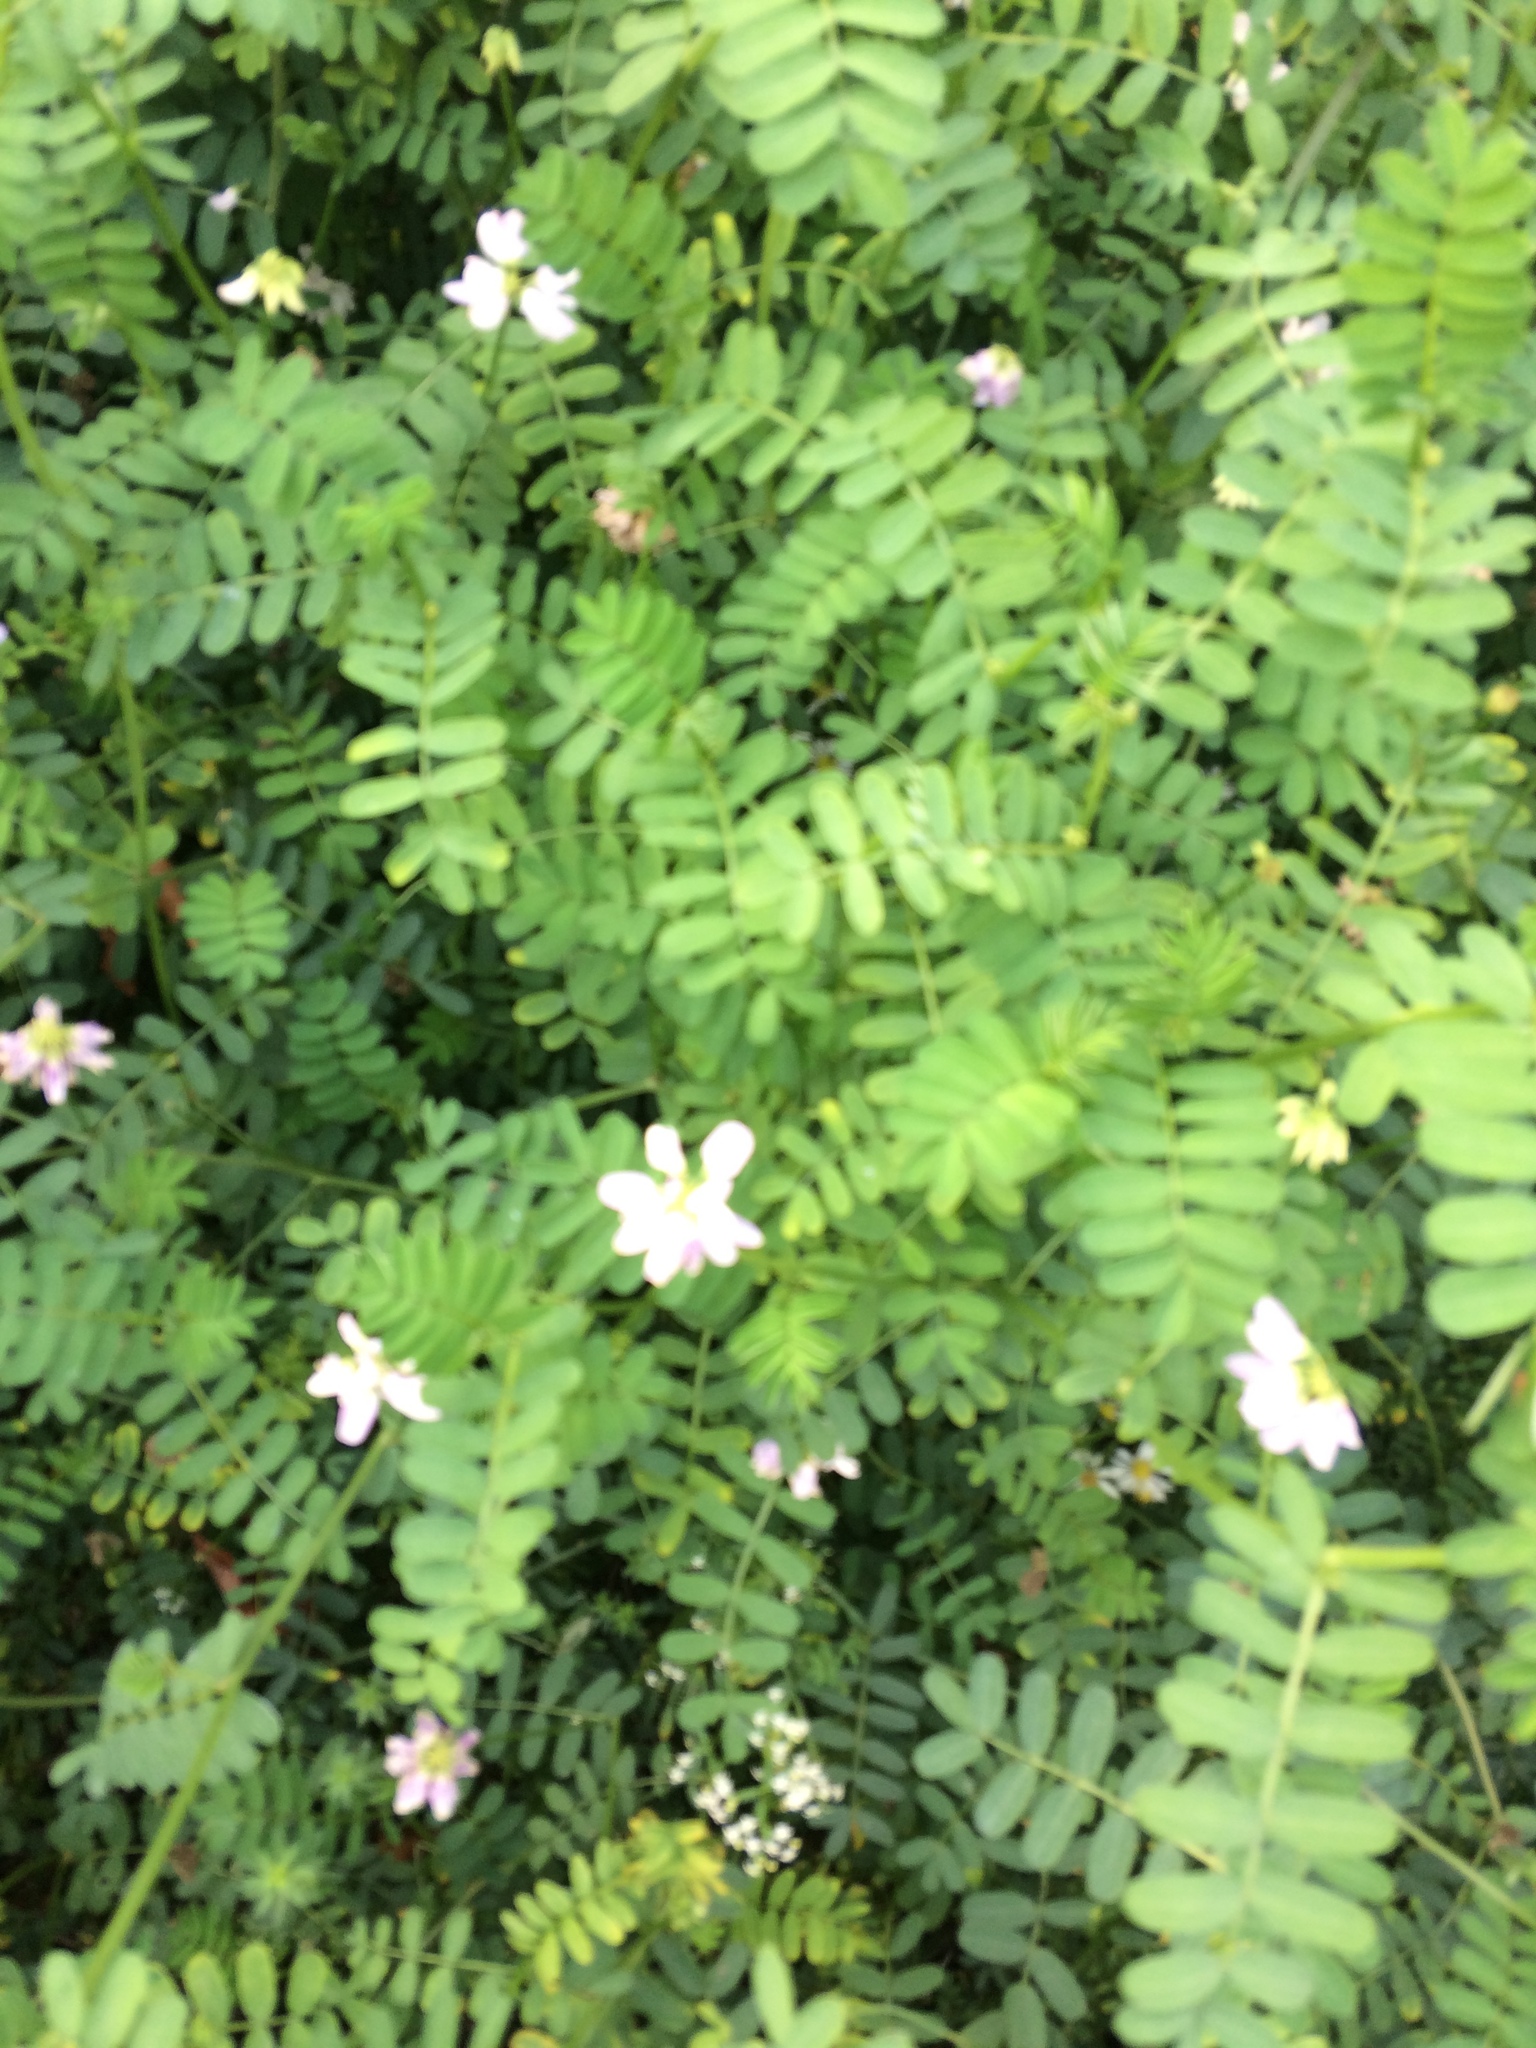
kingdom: Plantae
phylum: Tracheophyta
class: Magnoliopsida
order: Fabales
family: Fabaceae
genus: Coronilla
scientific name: Coronilla varia
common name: Crownvetch
